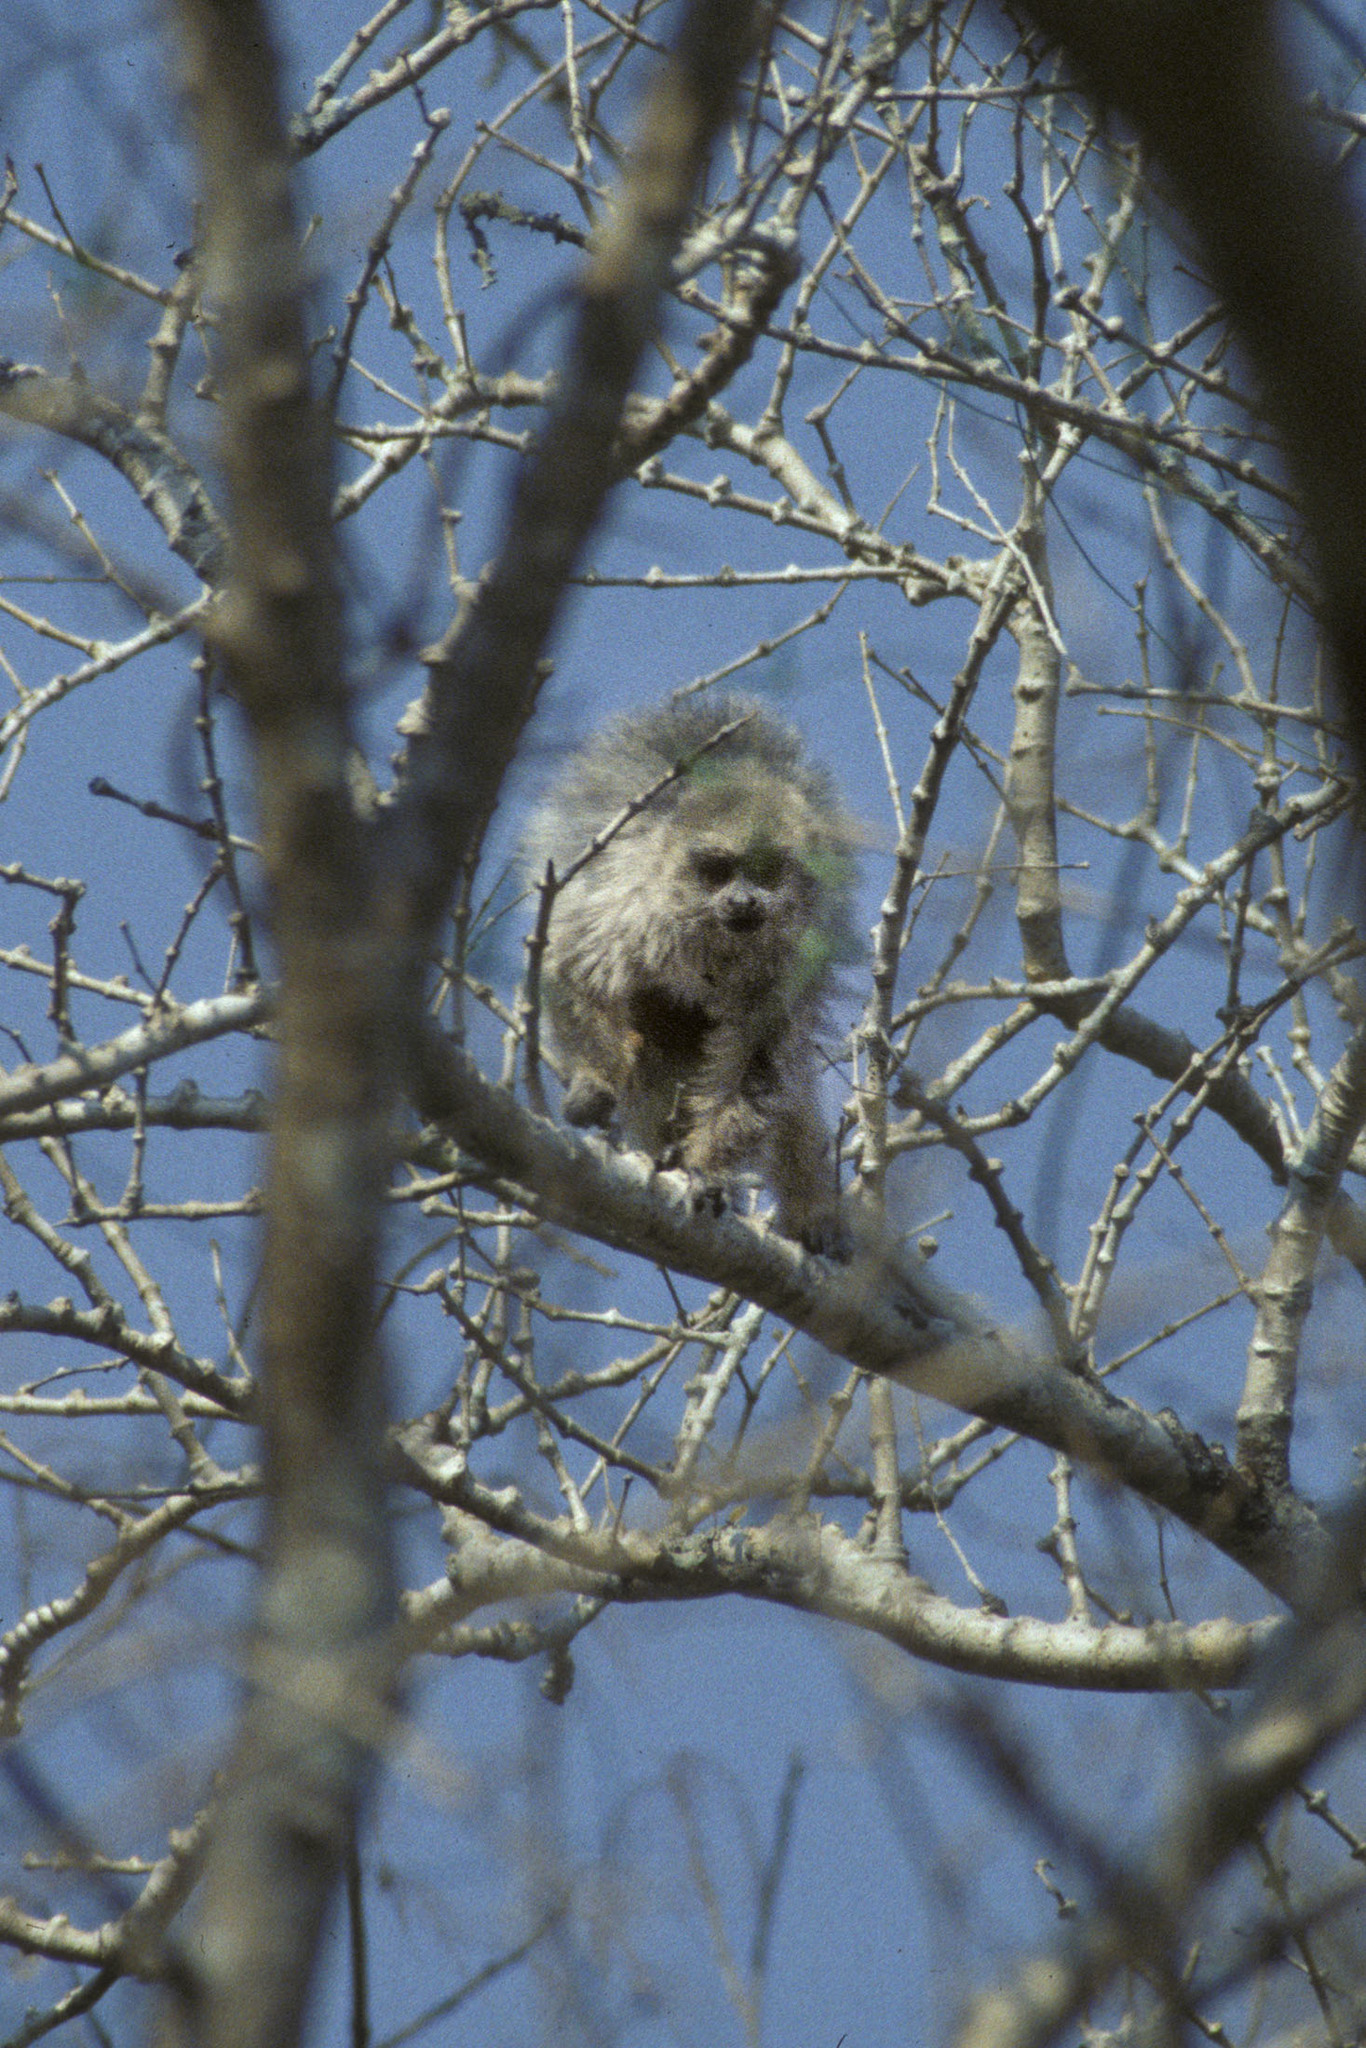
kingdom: Animalia
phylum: Chordata
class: Mammalia
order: Primates
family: Pitheciidae
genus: Plecturocebus
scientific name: Plecturocebus pallescens
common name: Pale titi
